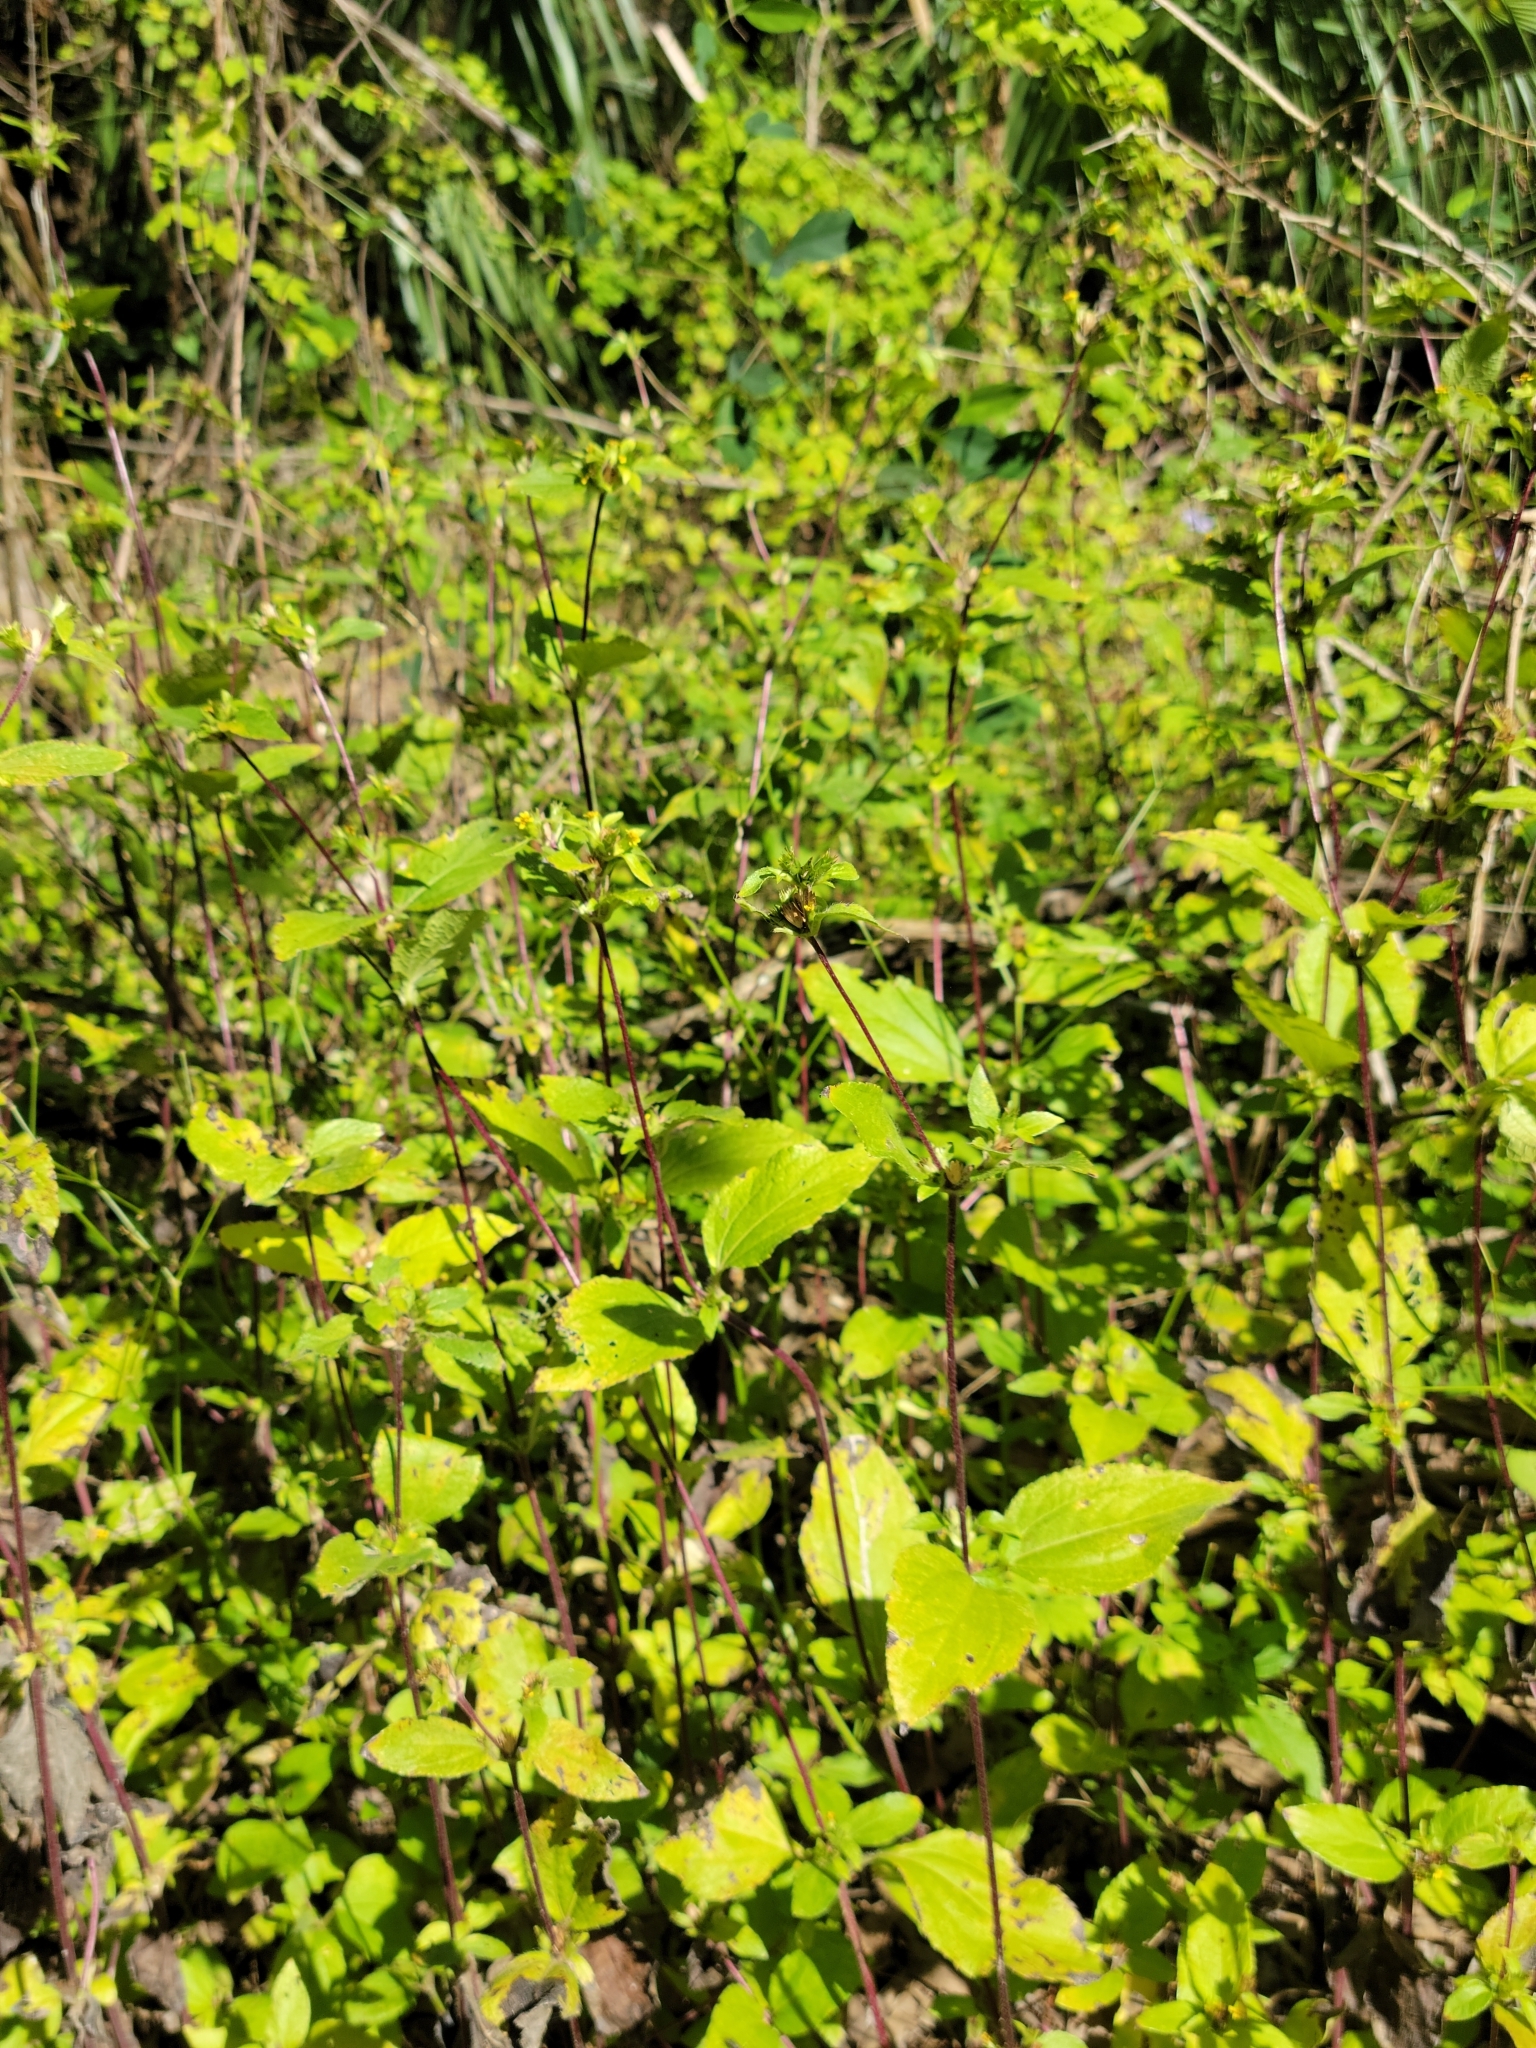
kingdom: Plantae
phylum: Tracheophyta
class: Magnoliopsida
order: Asterales
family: Asteraceae
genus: Synedrella
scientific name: Synedrella nodiflora
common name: Nodeweed
